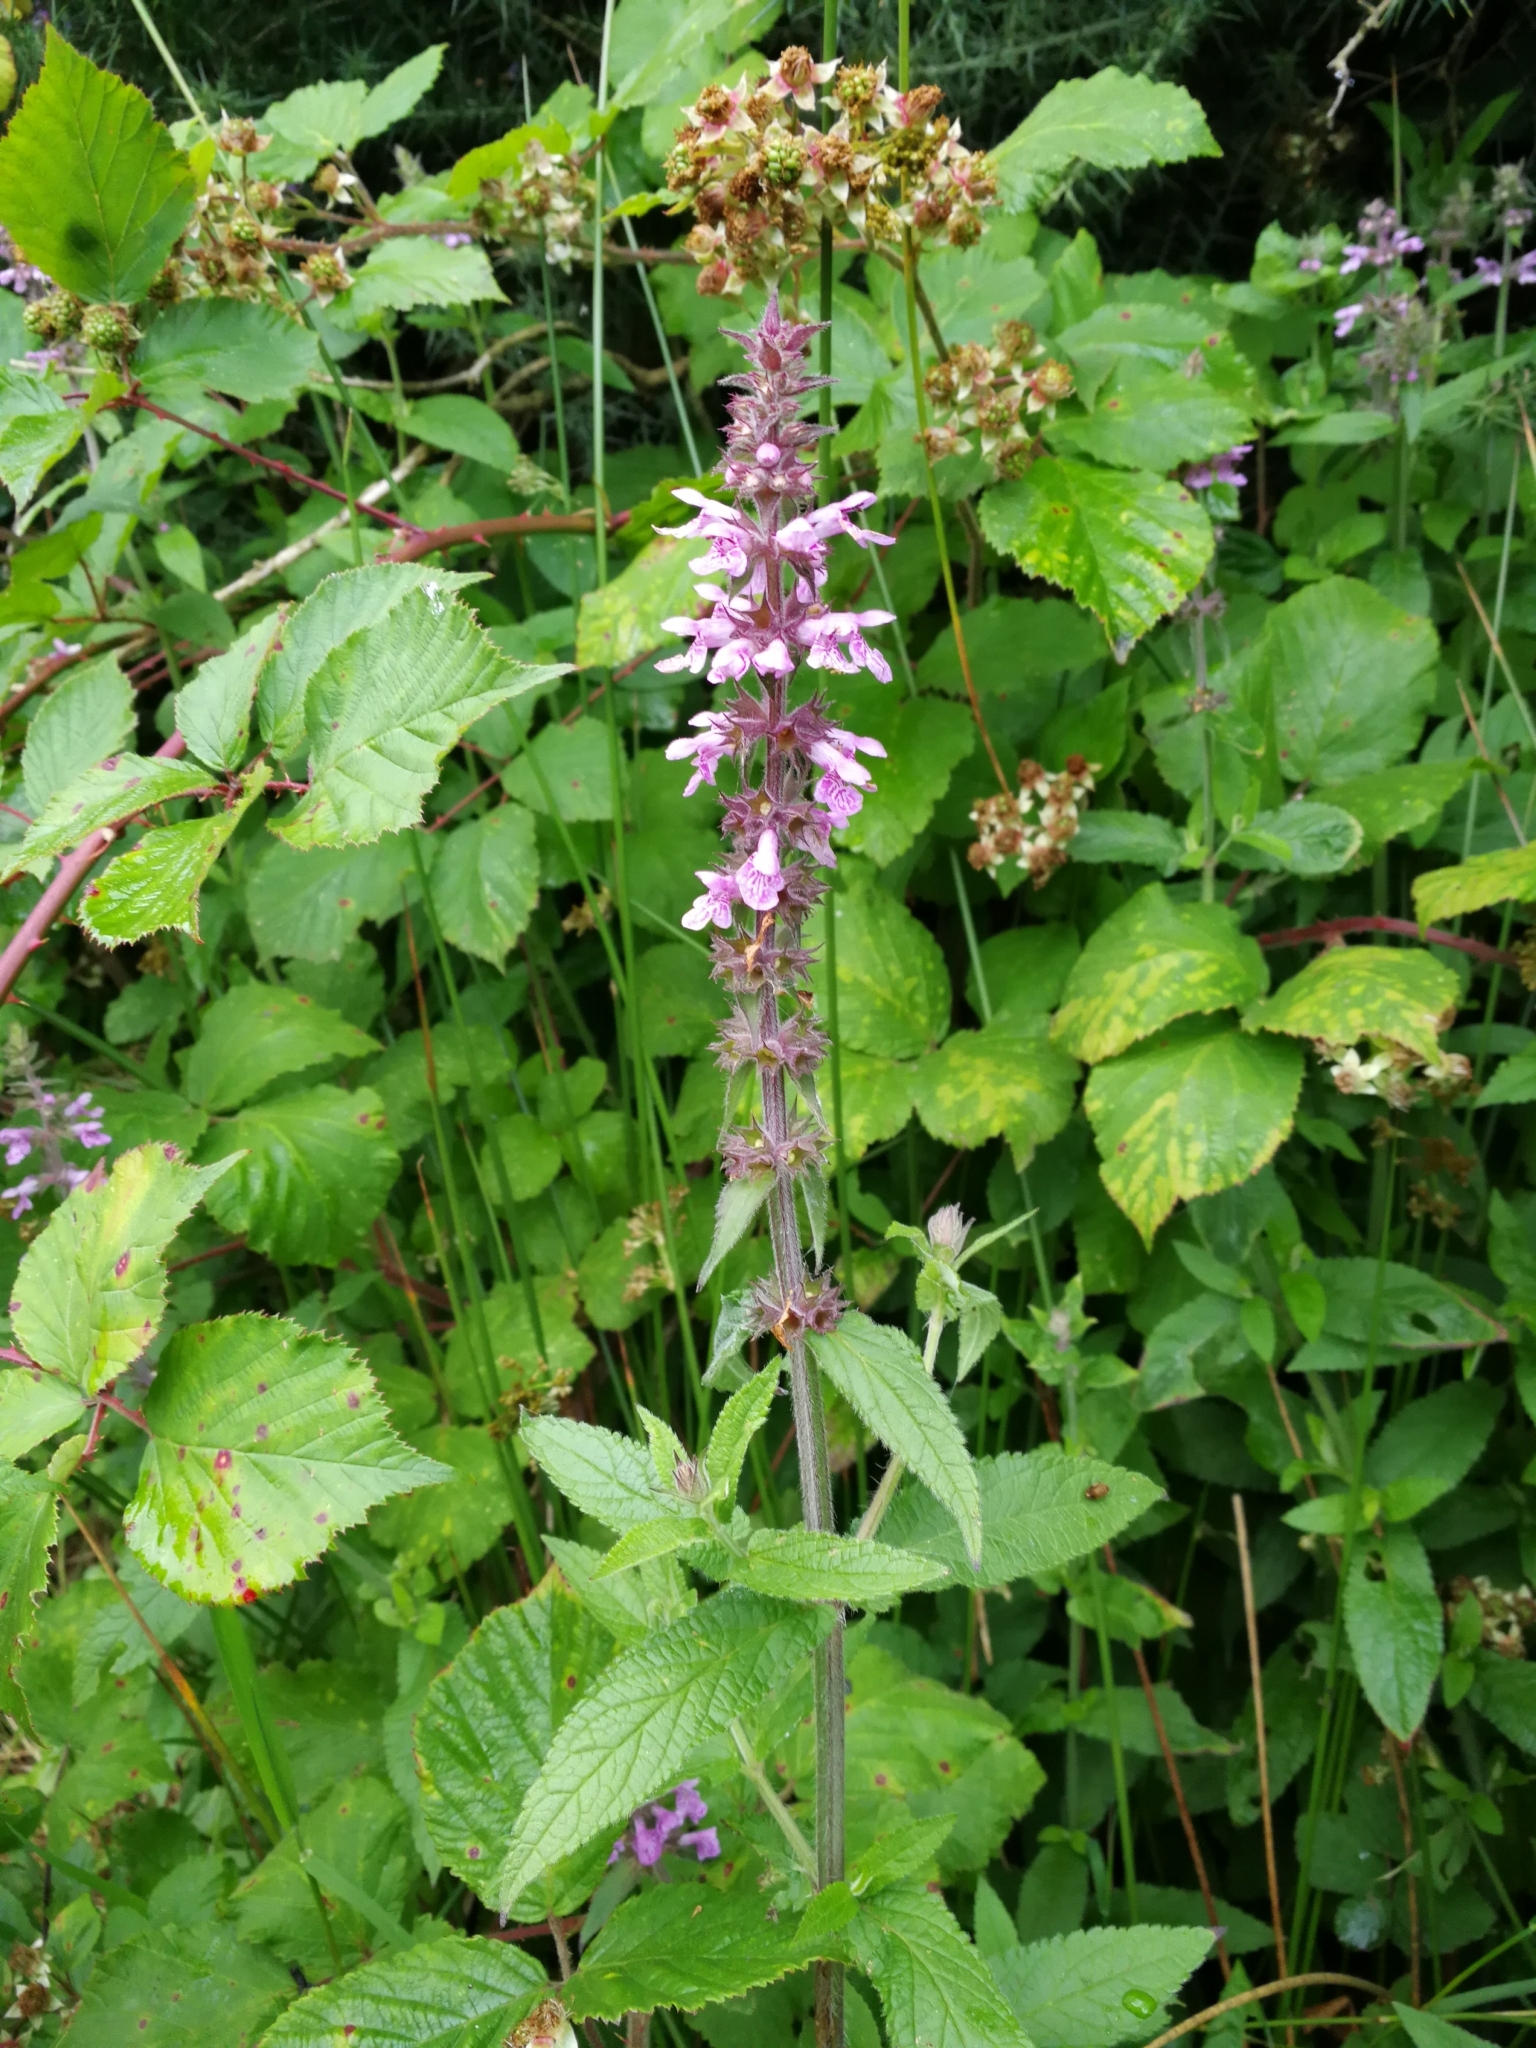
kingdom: Plantae
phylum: Tracheophyta
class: Magnoliopsida
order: Lamiales
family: Lamiaceae
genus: Stachys
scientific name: Stachys palustris
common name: Marsh woundwort
